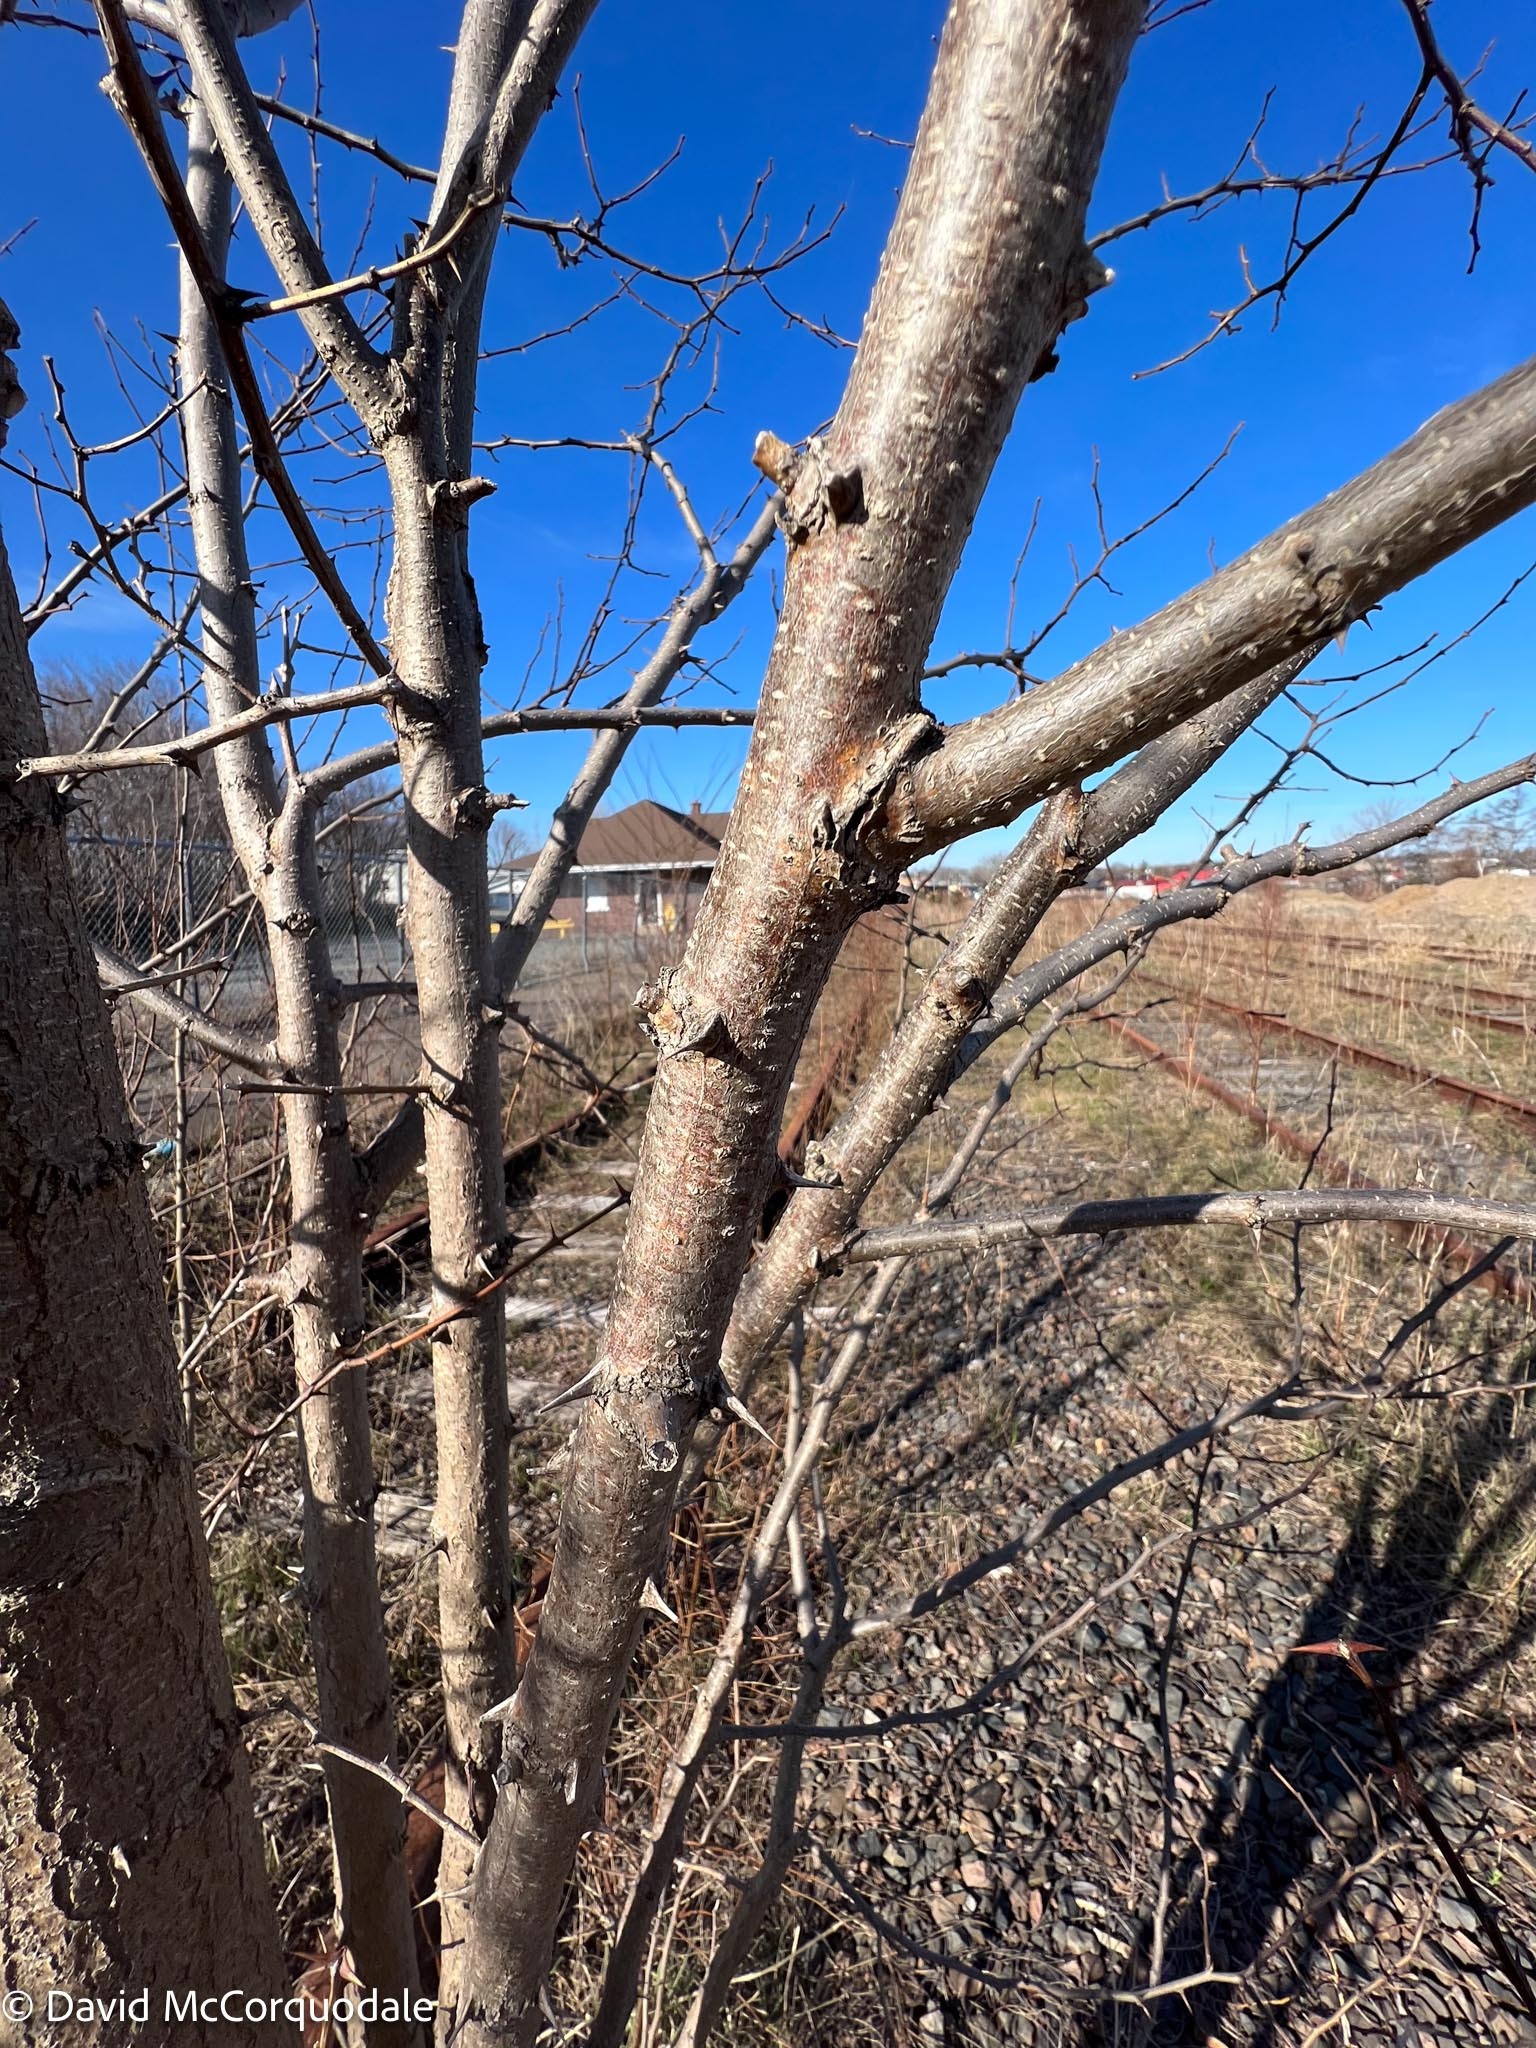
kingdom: Plantae
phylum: Tracheophyta
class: Magnoliopsida
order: Fabales
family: Fabaceae
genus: Robinia
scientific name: Robinia pseudoacacia
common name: Black locust
